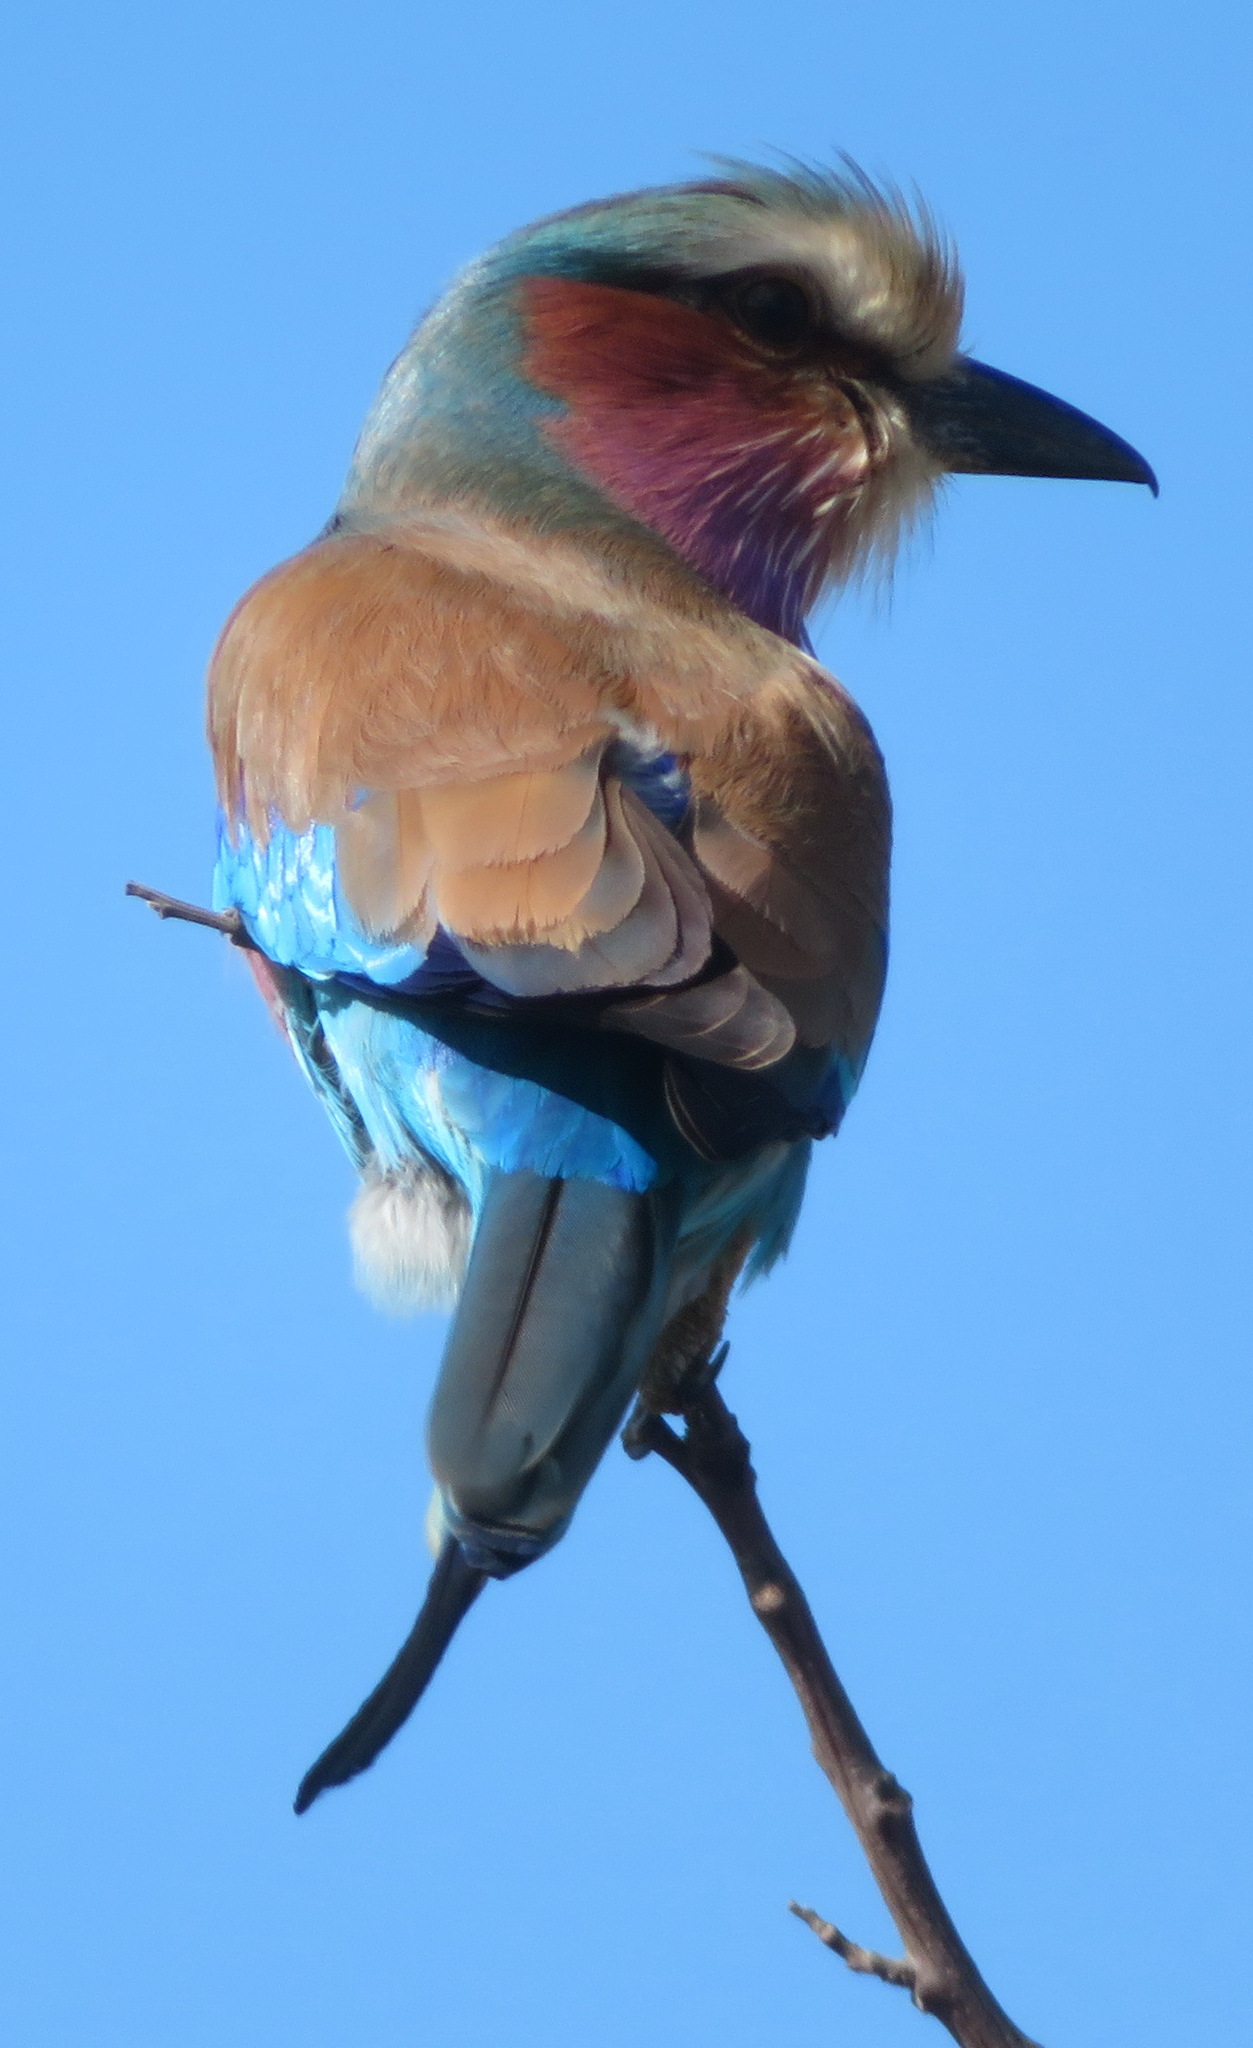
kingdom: Animalia
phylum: Chordata
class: Aves
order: Coraciiformes
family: Coraciidae
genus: Coracias
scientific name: Coracias caudatus
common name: Lilac-breasted roller
